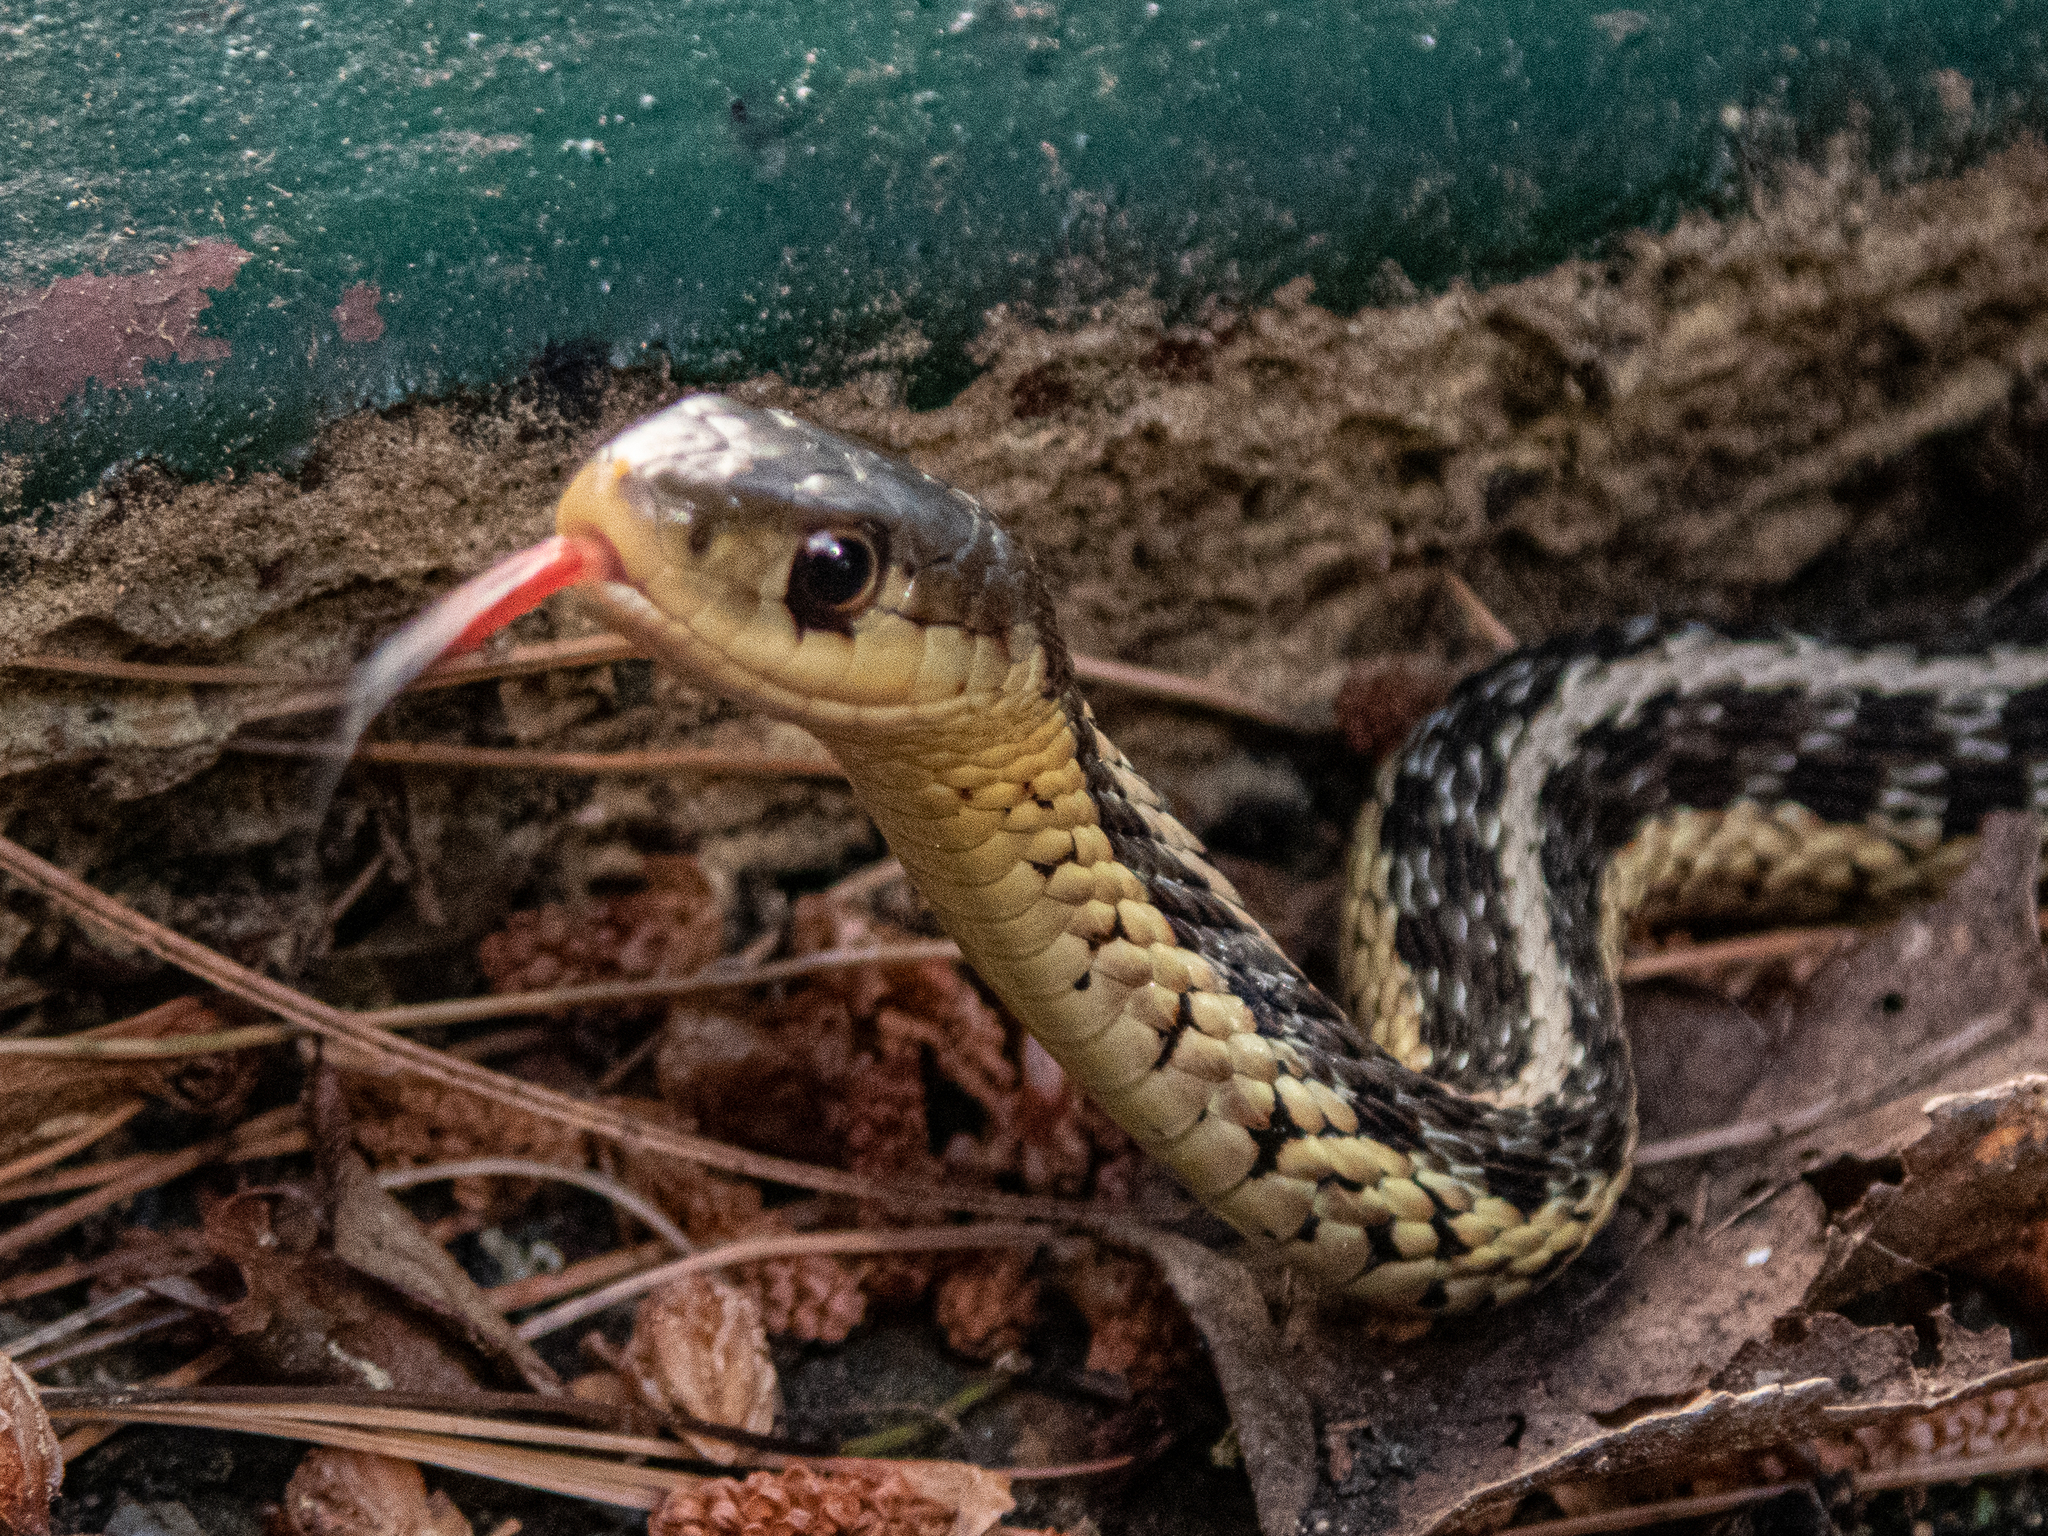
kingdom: Animalia
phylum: Chordata
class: Squamata
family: Colubridae
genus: Thamnophis
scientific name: Thamnophis sirtalis
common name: Common garter snake
